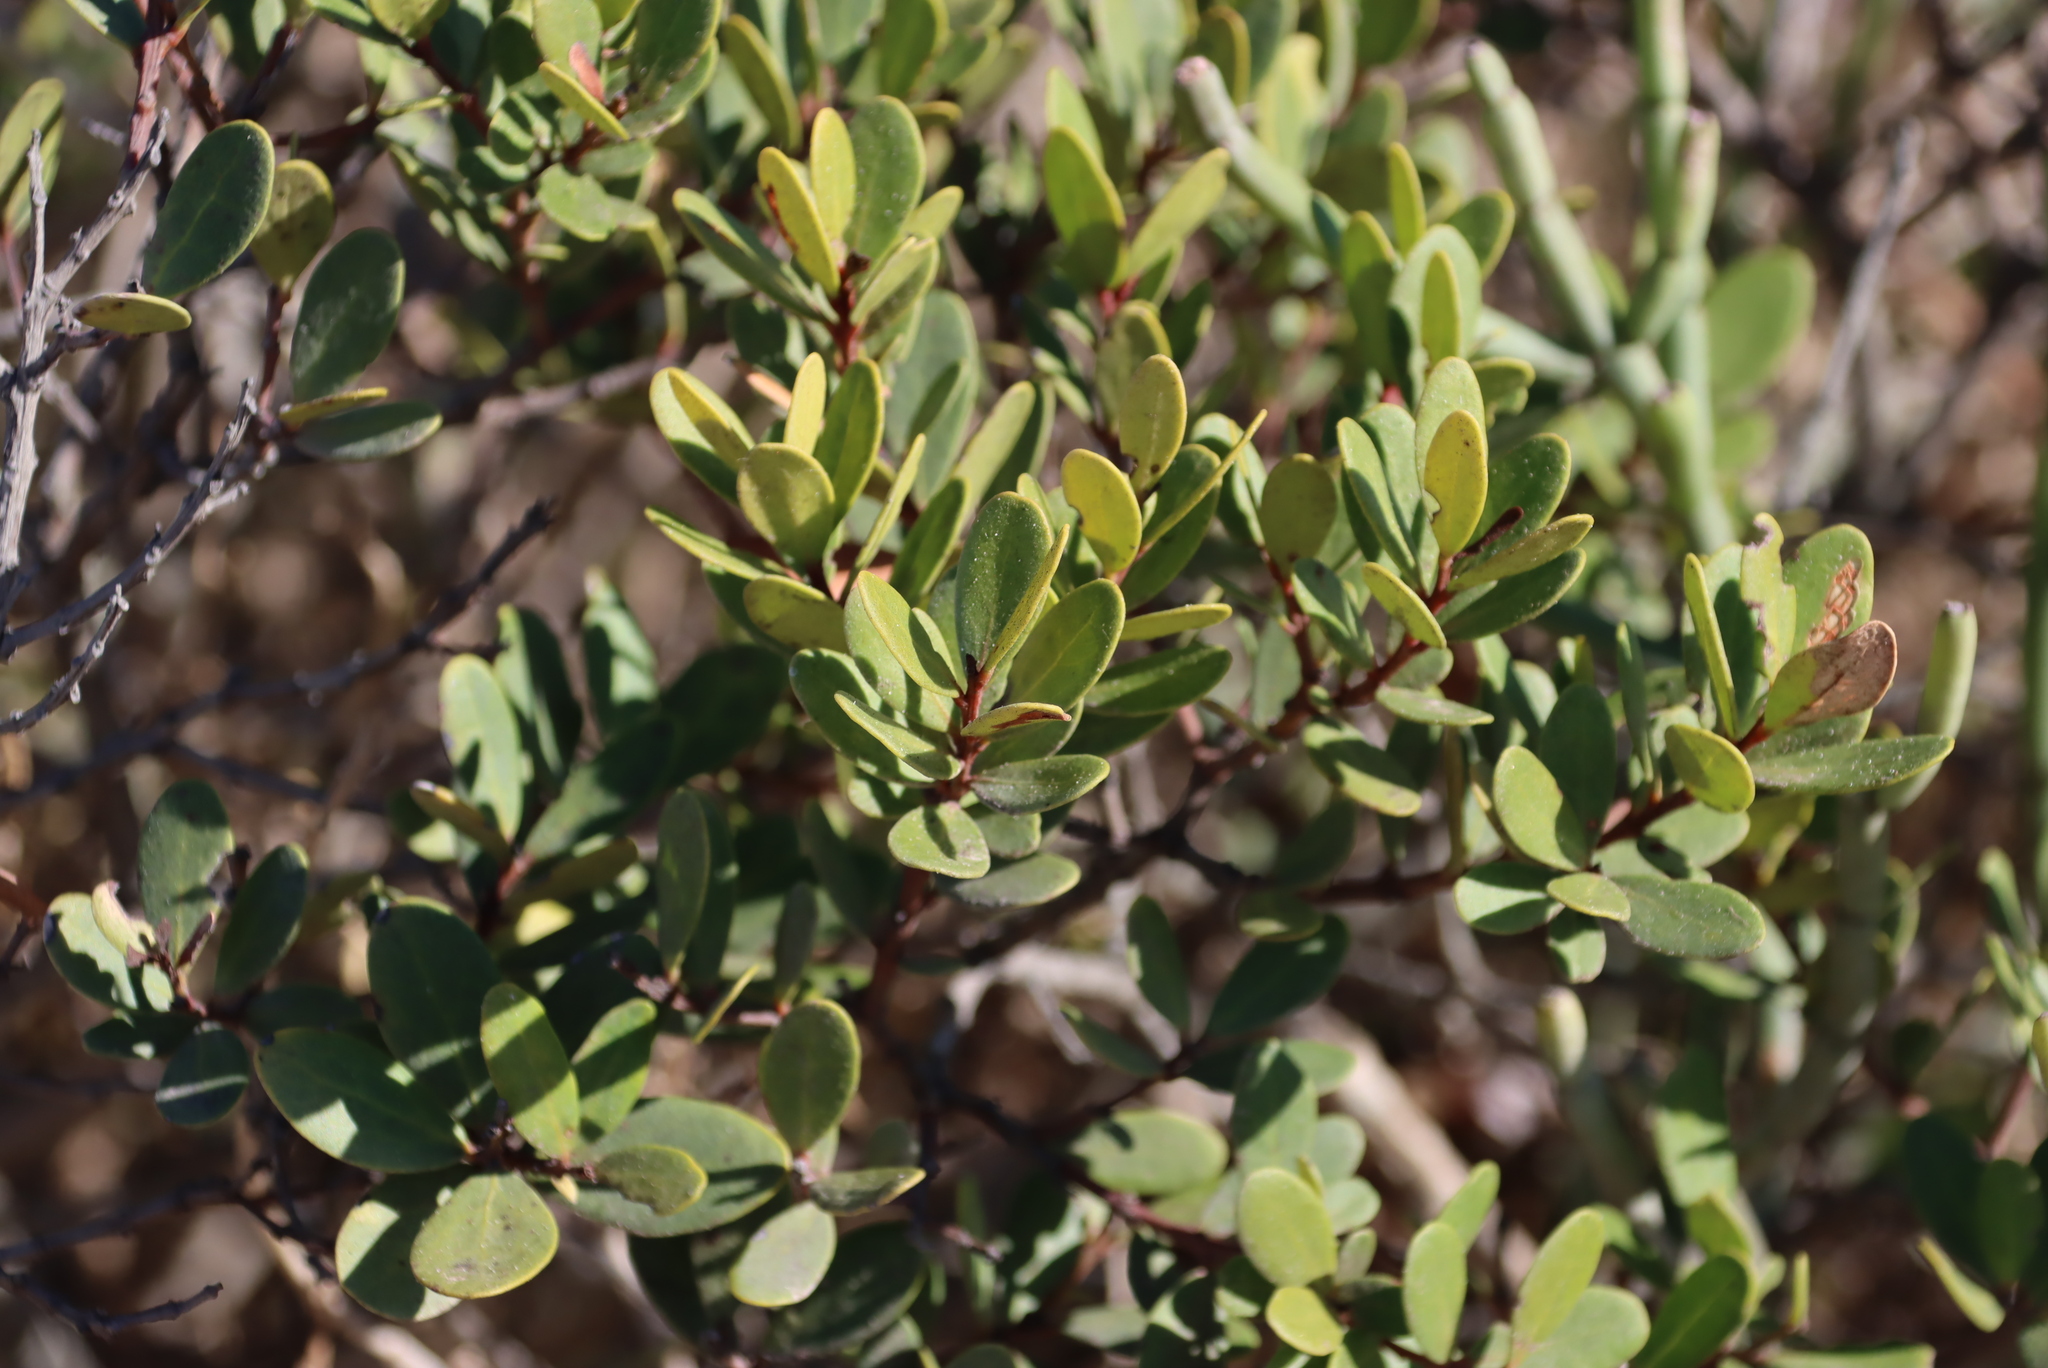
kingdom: Plantae
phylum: Tracheophyta
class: Magnoliopsida
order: Ericales
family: Ebenaceae
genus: Euclea
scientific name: Euclea racemosa
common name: Dune guarri
